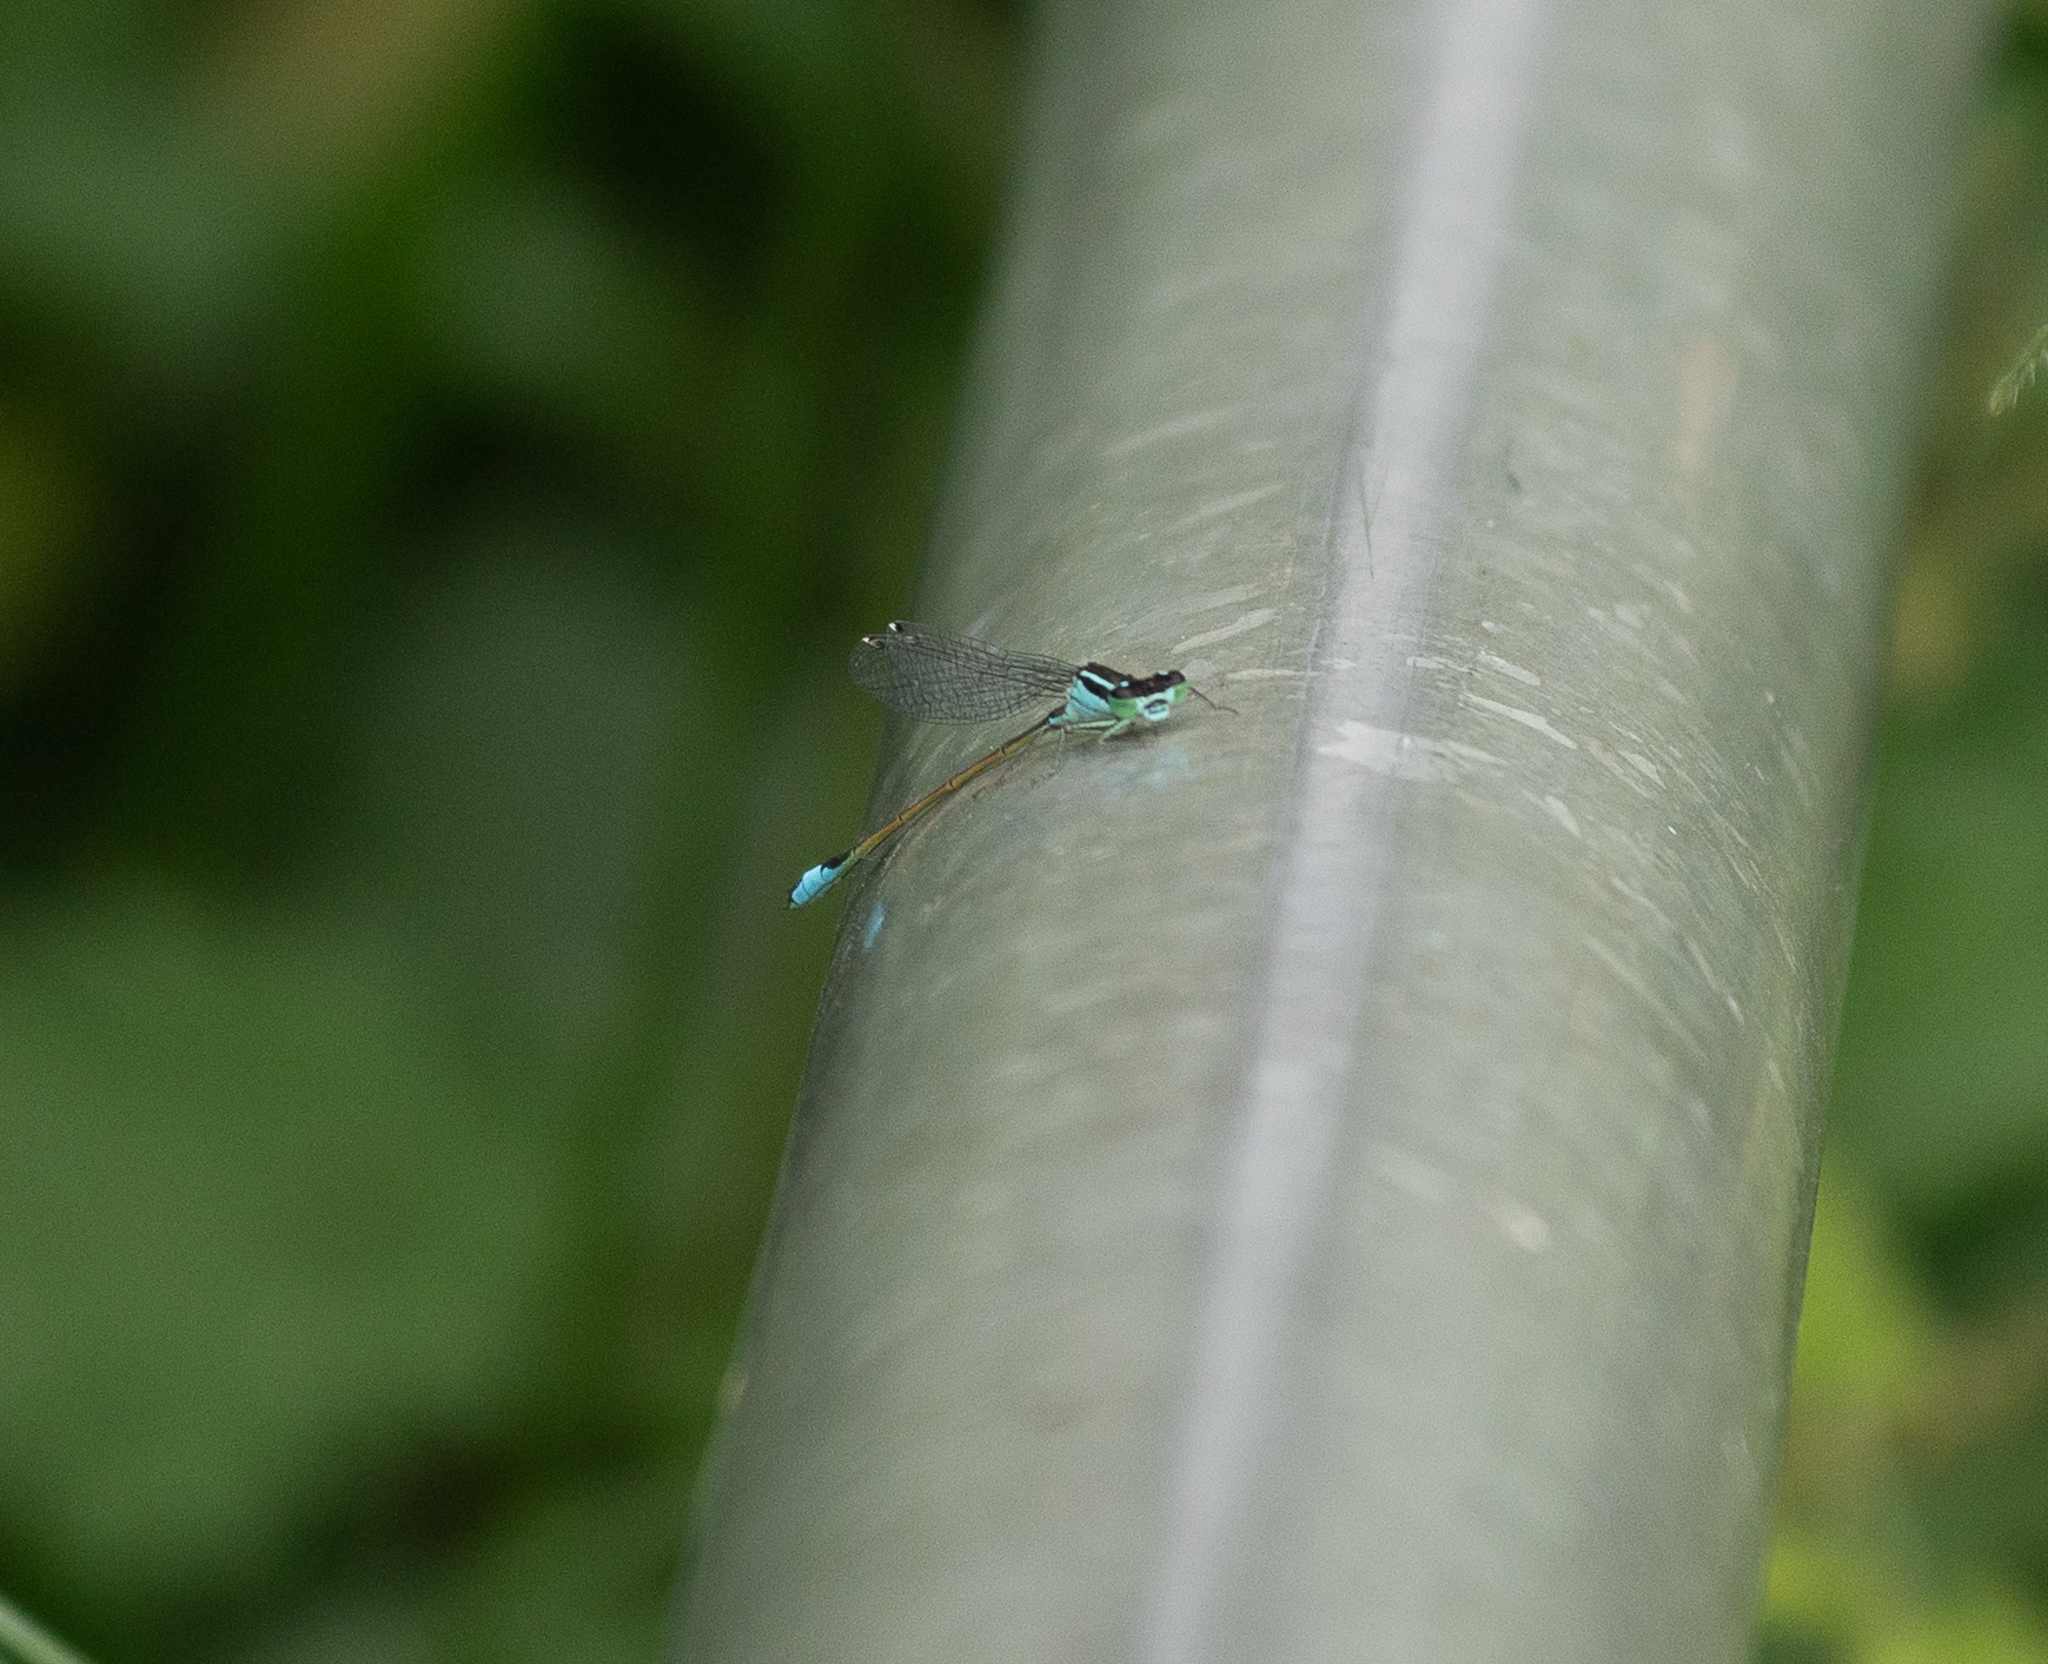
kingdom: Animalia
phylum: Arthropoda
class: Insecta
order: Odonata
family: Coenagrionidae
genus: Ischnura
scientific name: Ischnura elegans
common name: Blue-tailed damselfly
